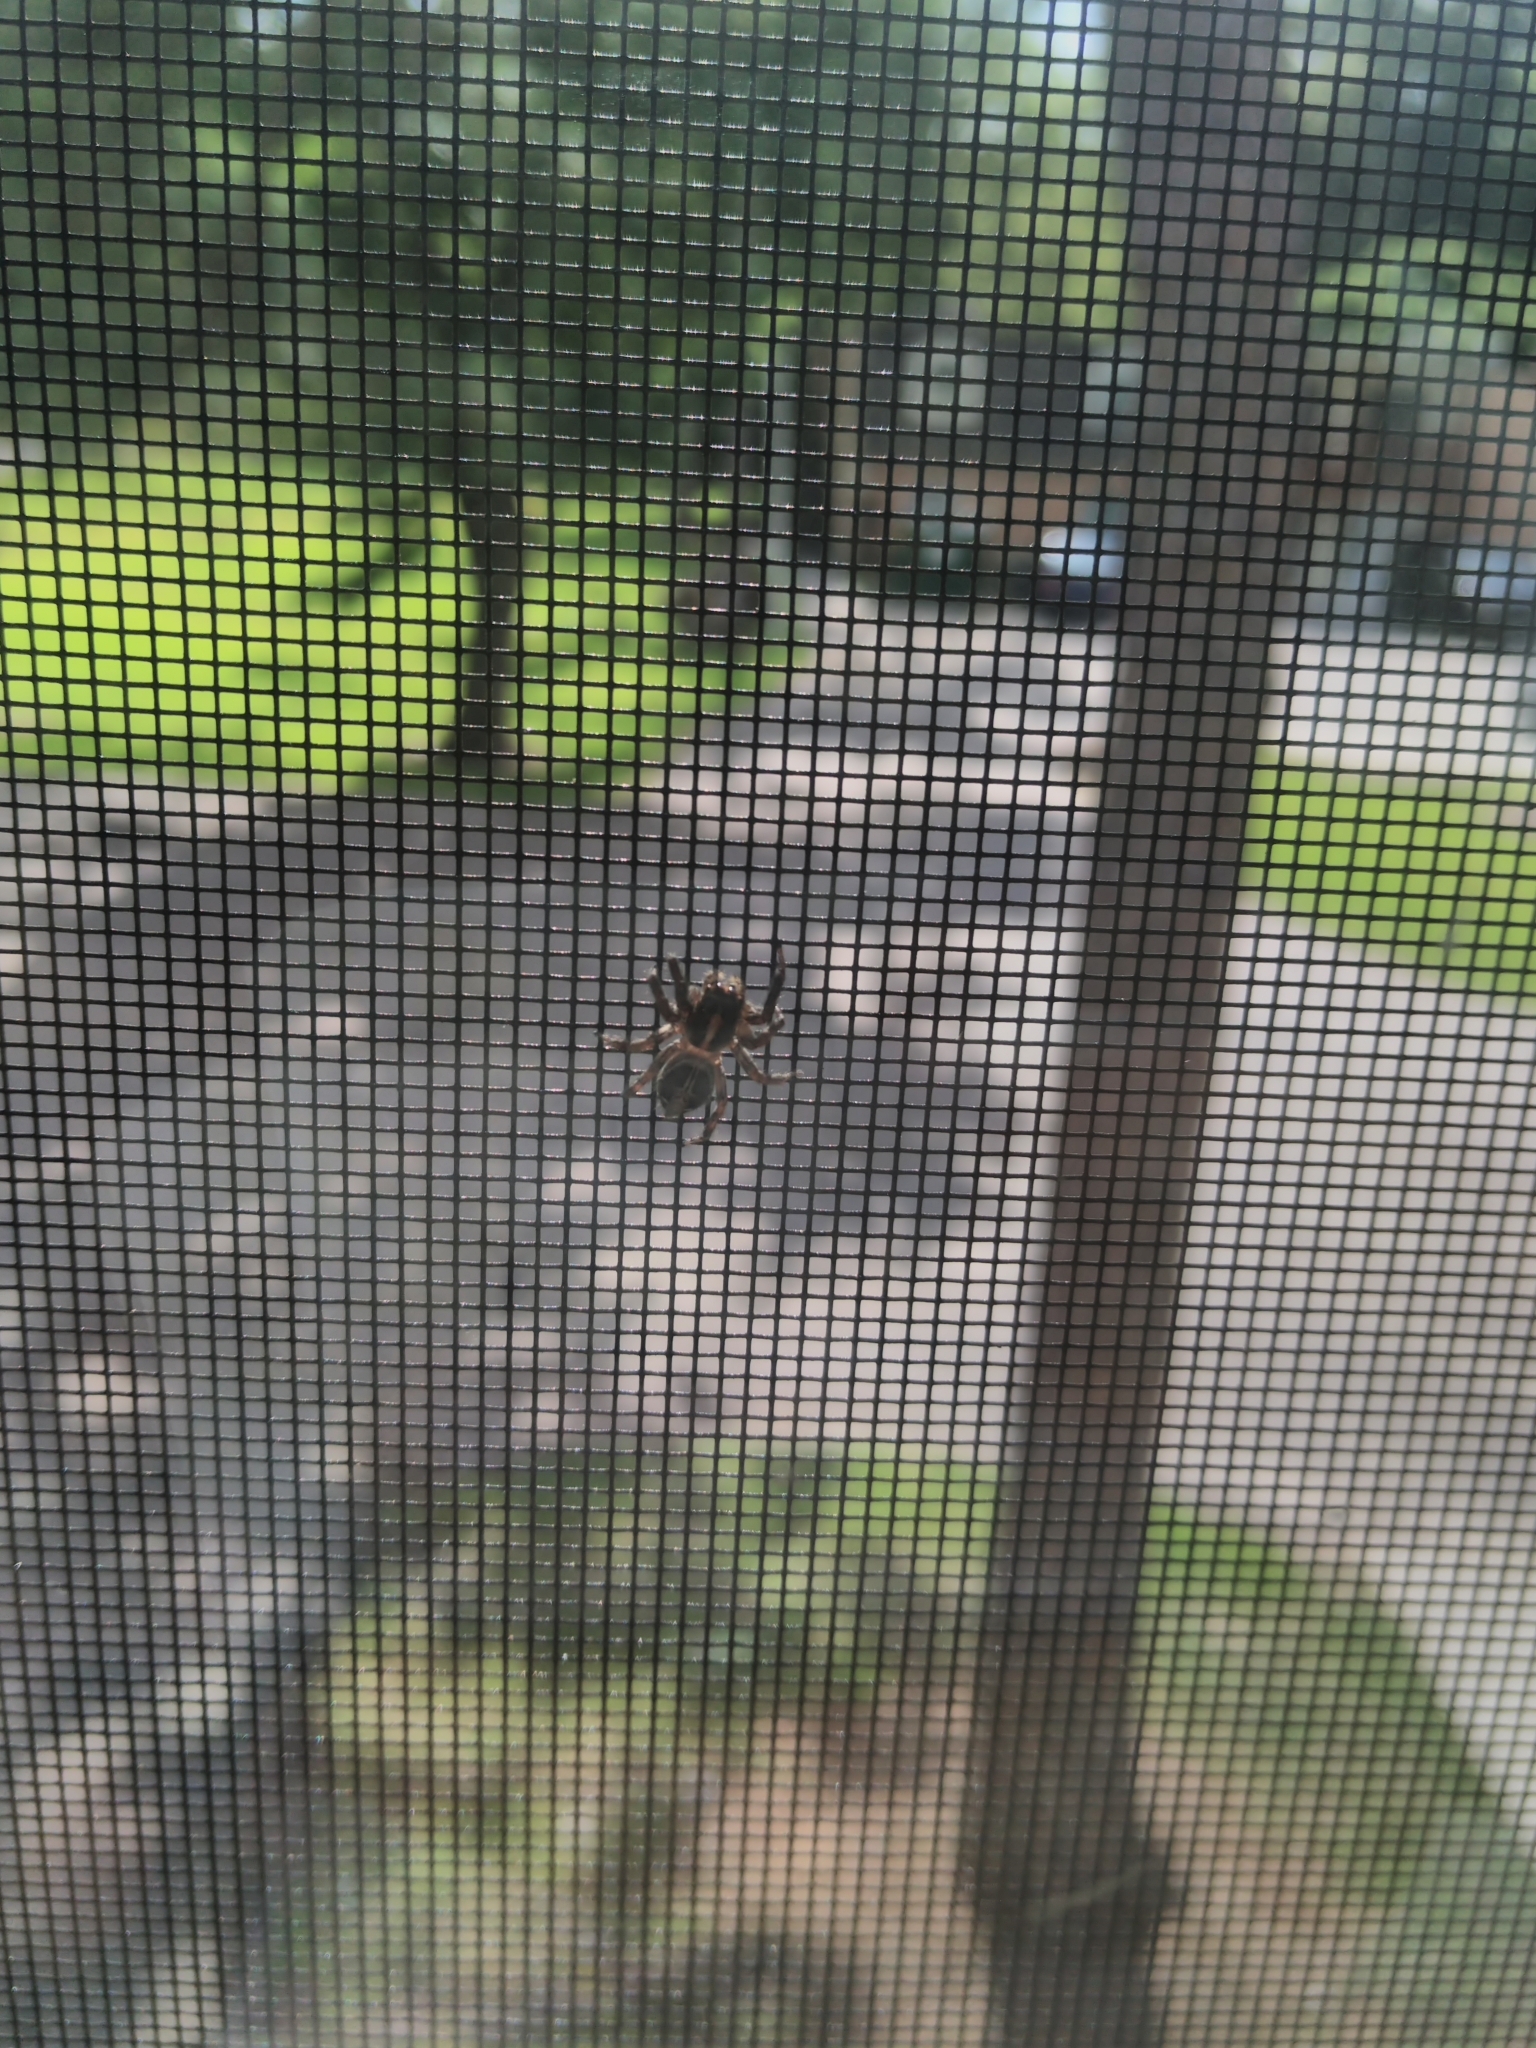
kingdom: Animalia
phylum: Arthropoda
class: Arachnida
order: Araneae
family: Salticidae
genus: Plexippus
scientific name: Plexippus paykulli
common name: Pantropical jumper
